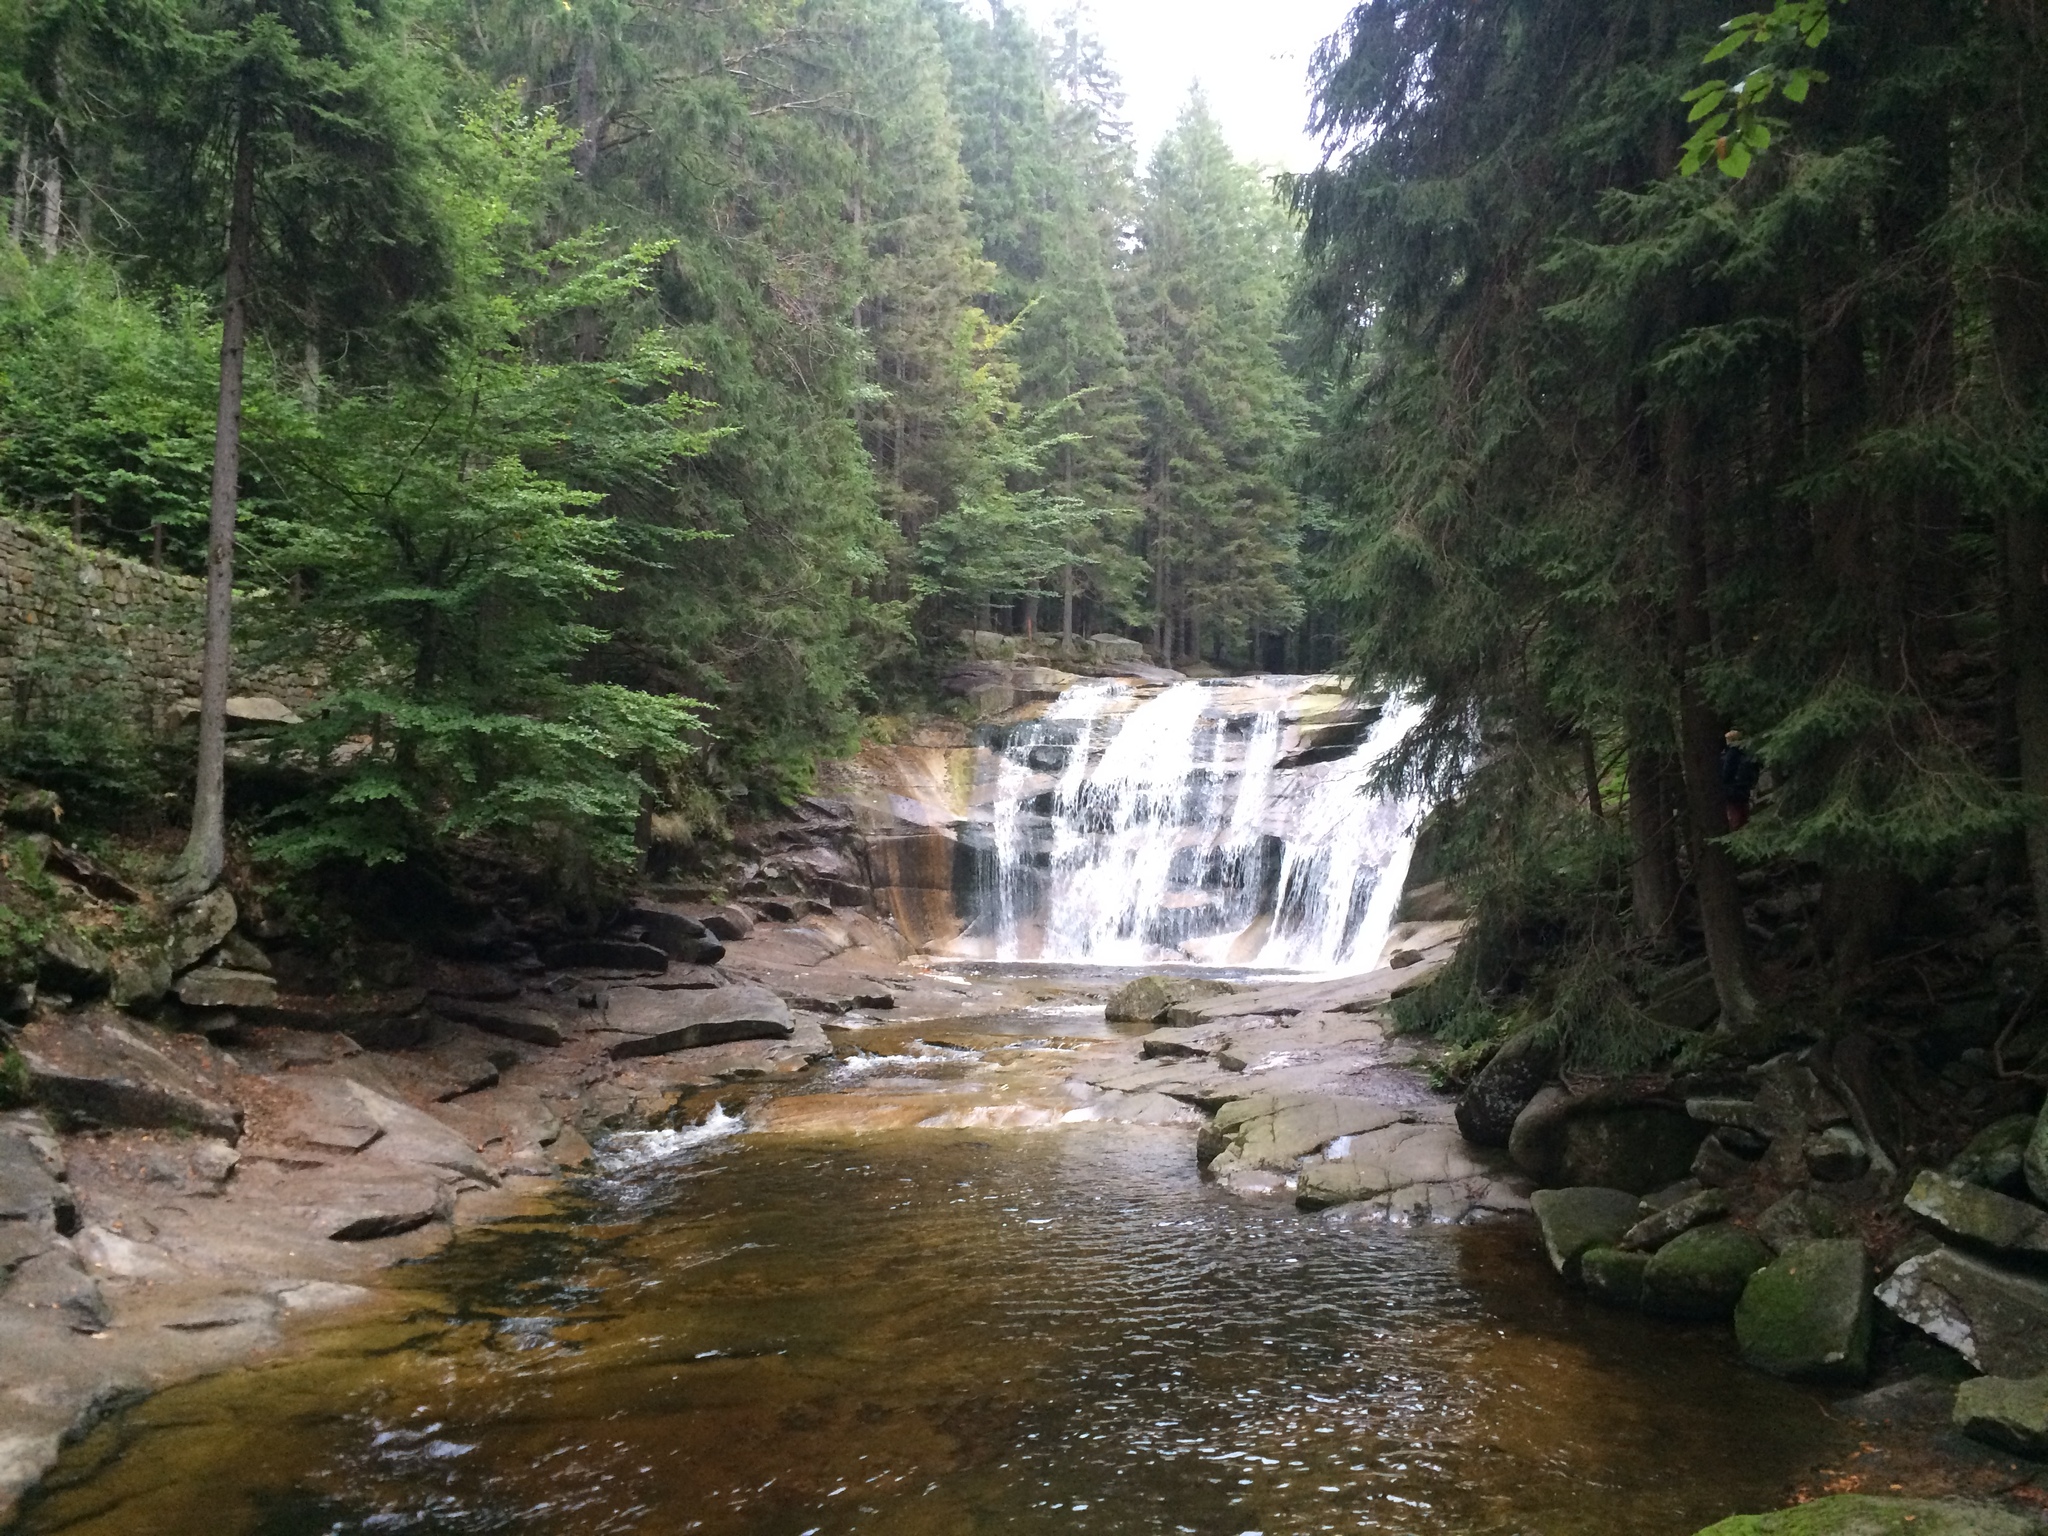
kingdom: Plantae
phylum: Tracheophyta
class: Pinopsida
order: Pinales
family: Pinaceae
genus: Picea
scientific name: Picea abies
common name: Norway spruce
